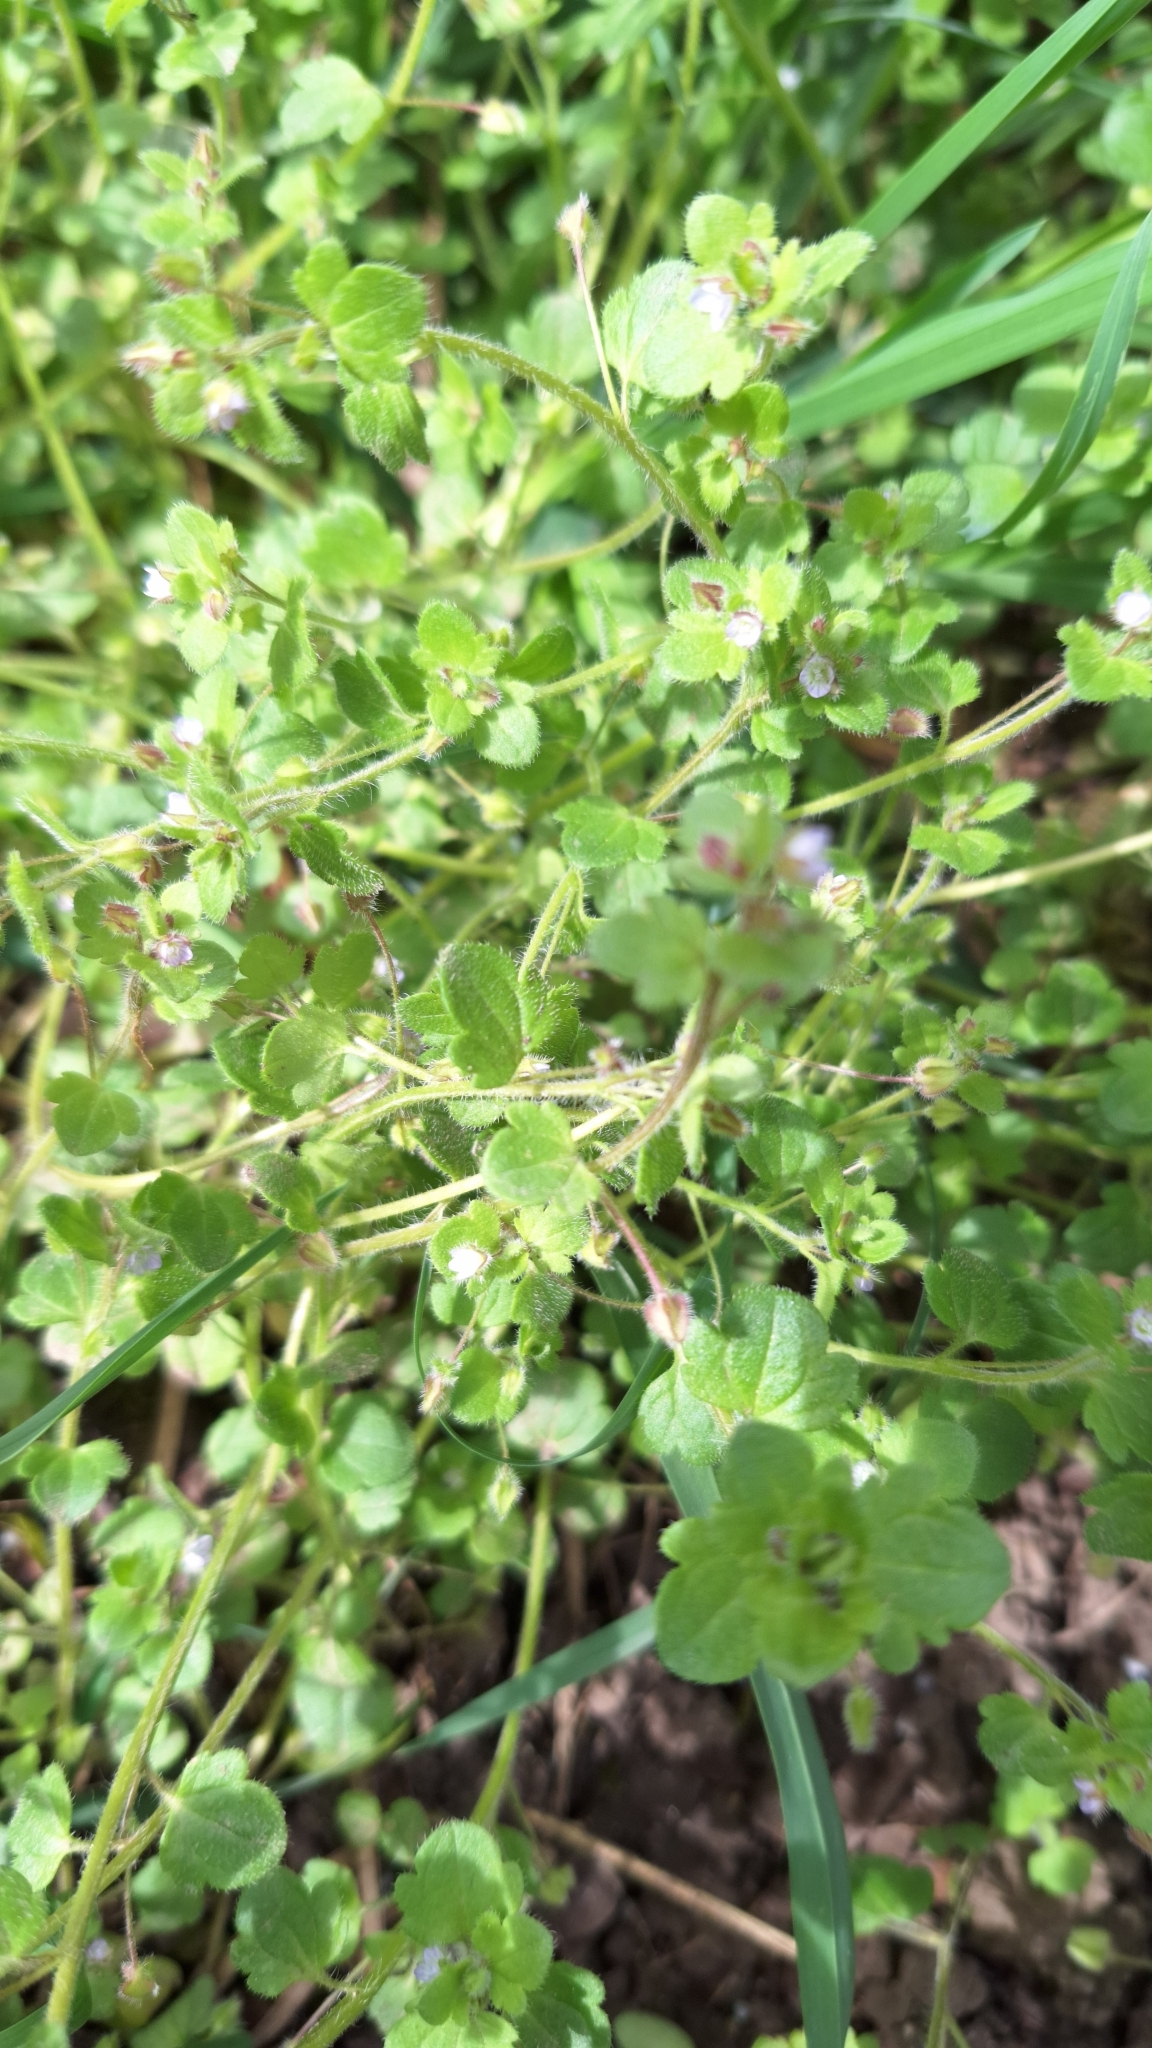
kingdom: Plantae
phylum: Tracheophyta
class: Magnoliopsida
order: Lamiales
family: Plantaginaceae
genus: Veronica
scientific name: Veronica sublobata
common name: False ivy-leaved speedwell
